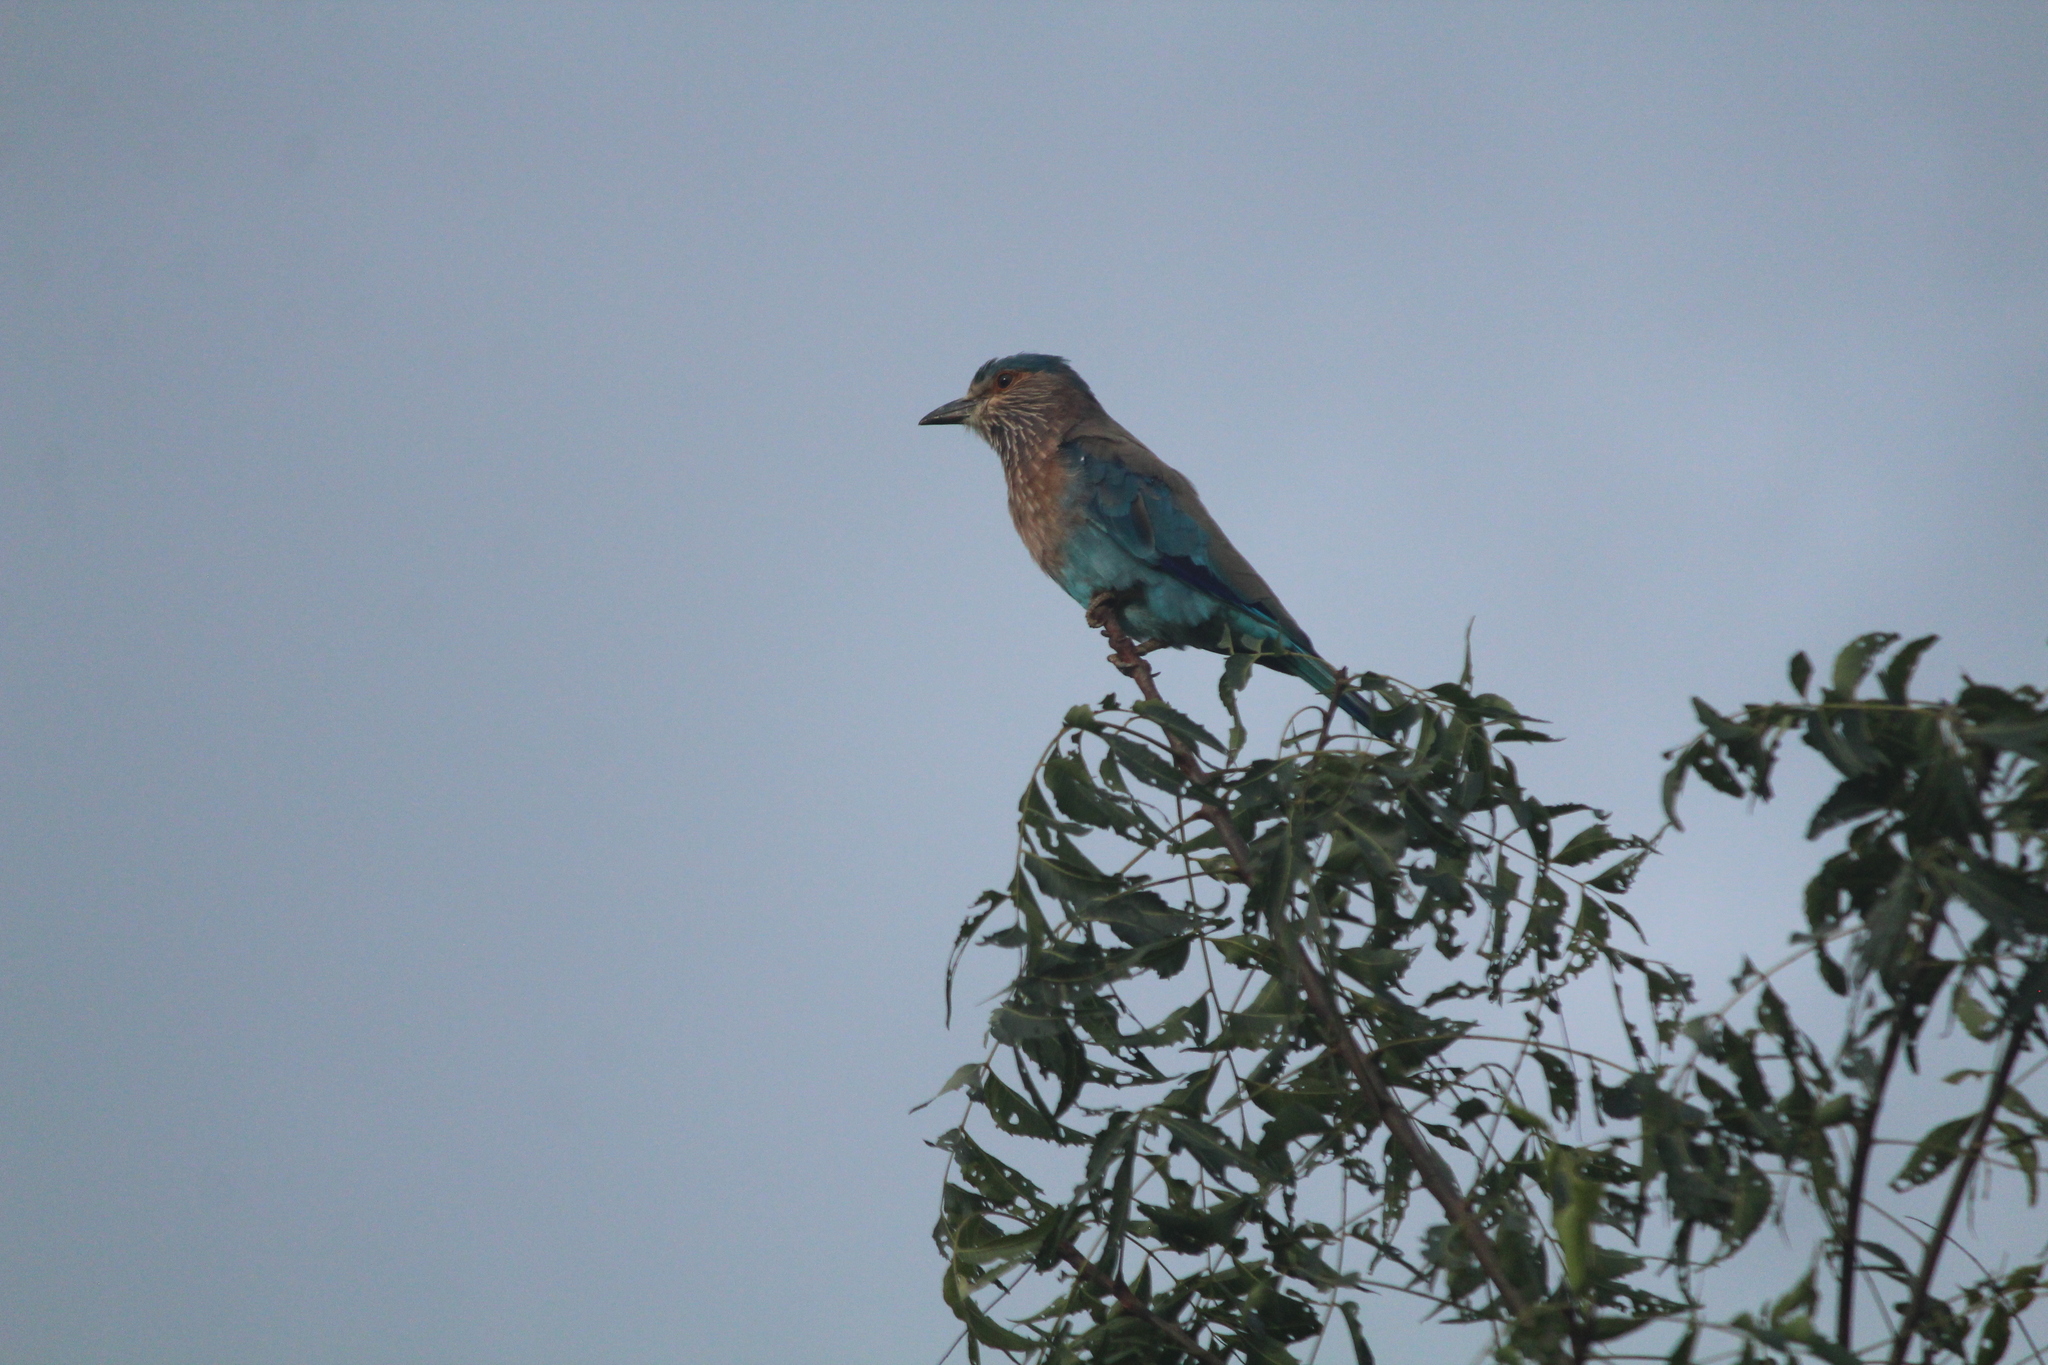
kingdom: Animalia
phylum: Chordata
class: Aves
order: Coraciiformes
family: Coraciidae
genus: Coracias
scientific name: Coracias benghalensis
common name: Indian roller
